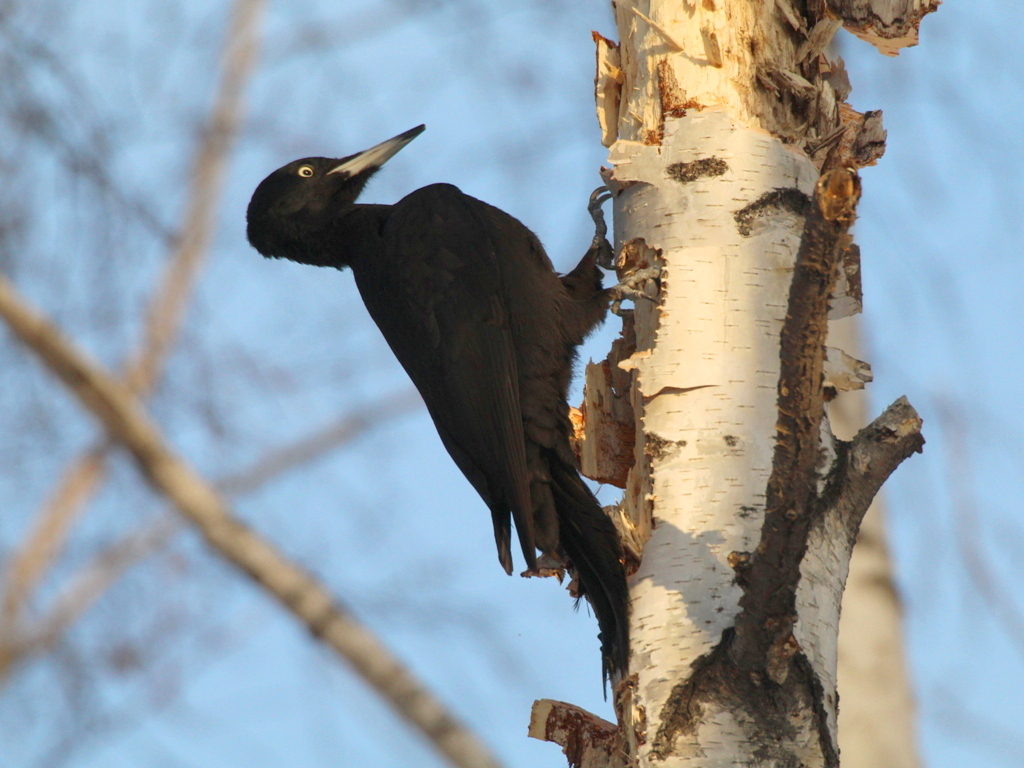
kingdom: Animalia
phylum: Chordata
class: Aves
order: Piciformes
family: Picidae
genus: Dryocopus
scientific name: Dryocopus martius
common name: Black woodpecker
